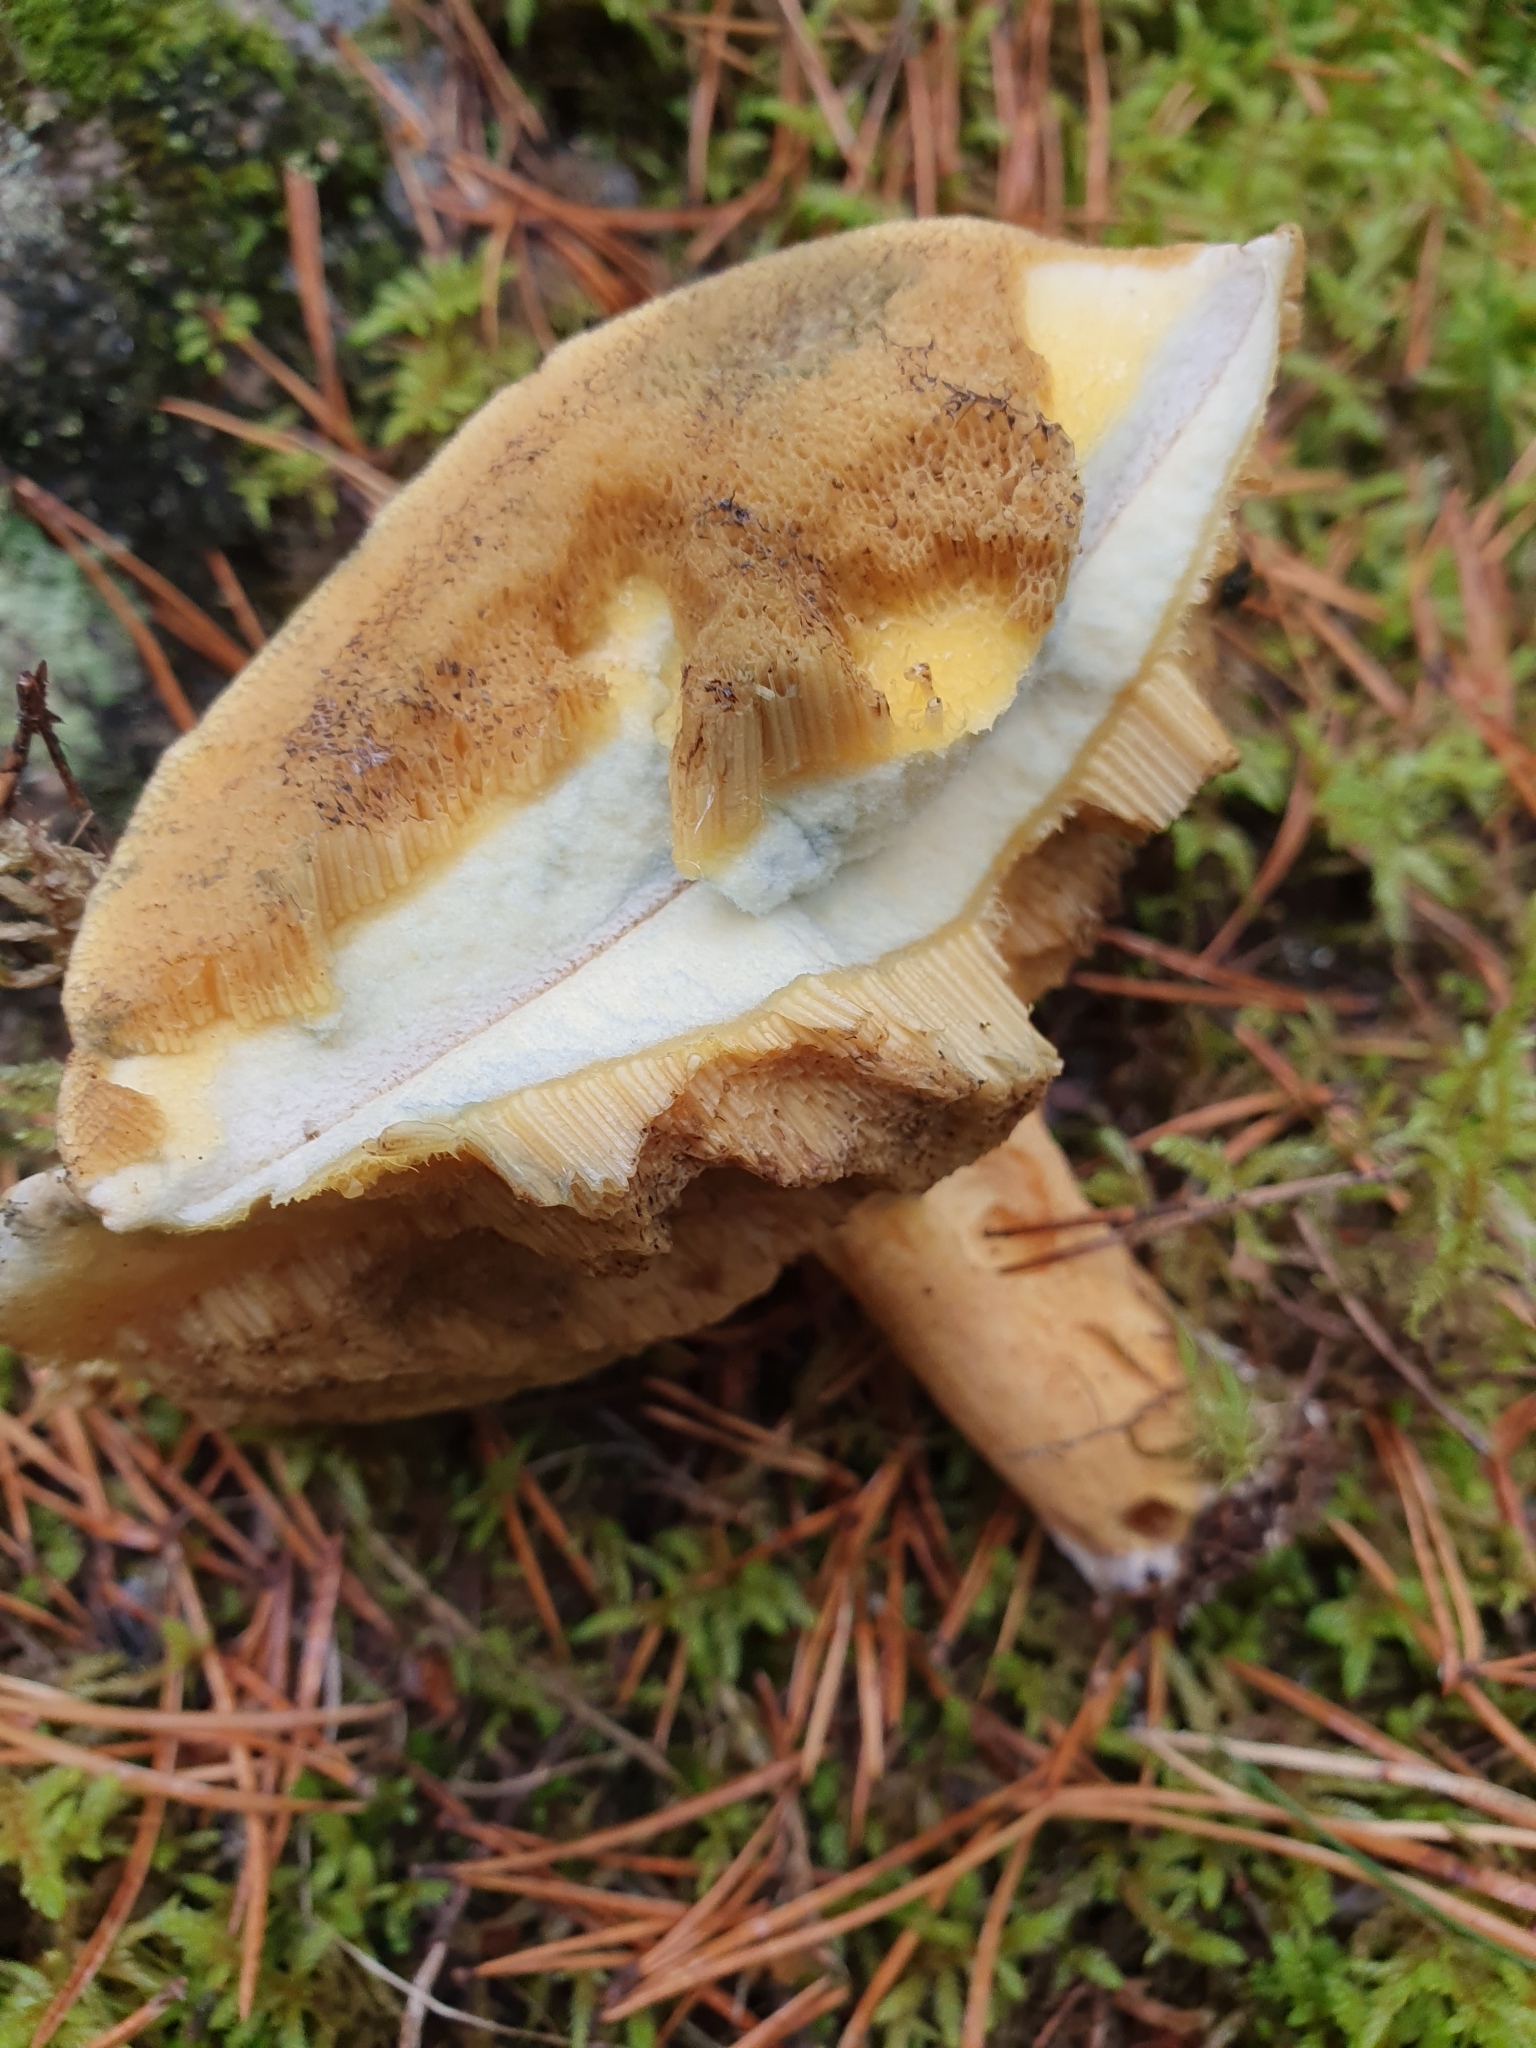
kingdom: Fungi
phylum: Basidiomycota
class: Agaricomycetes
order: Boletales
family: Suillaceae
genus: Suillus
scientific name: Suillus variegatus
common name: Velvet bolete
